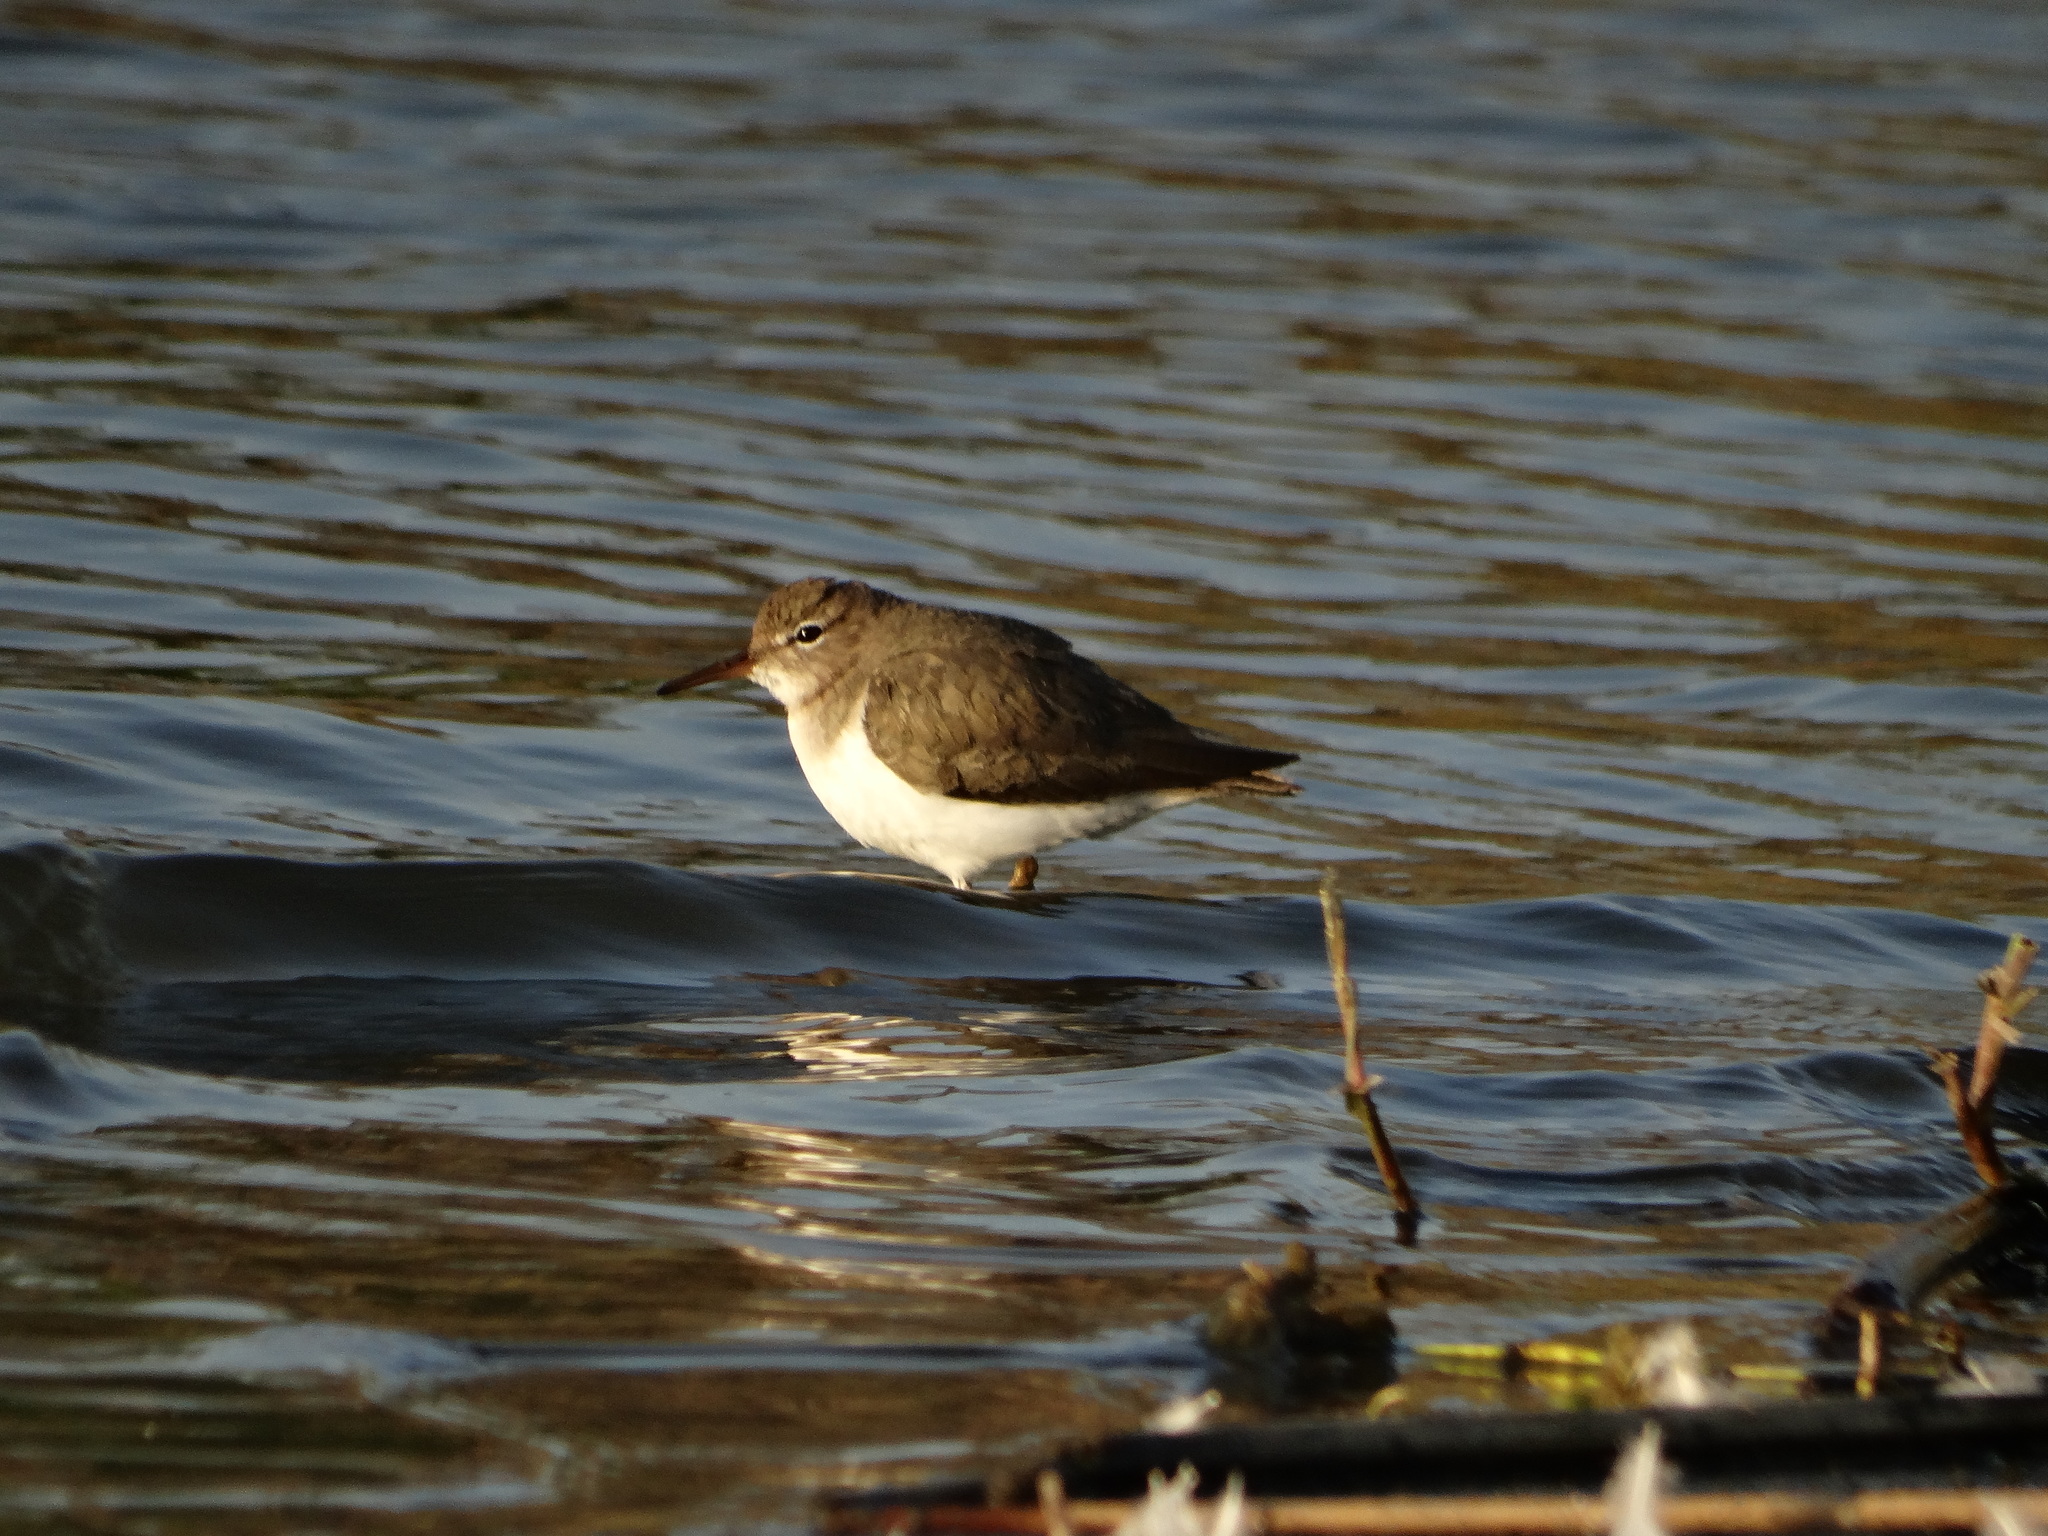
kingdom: Animalia
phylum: Chordata
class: Aves
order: Charadriiformes
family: Scolopacidae
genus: Actitis
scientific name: Actitis macularius
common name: Spotted sandpiper
